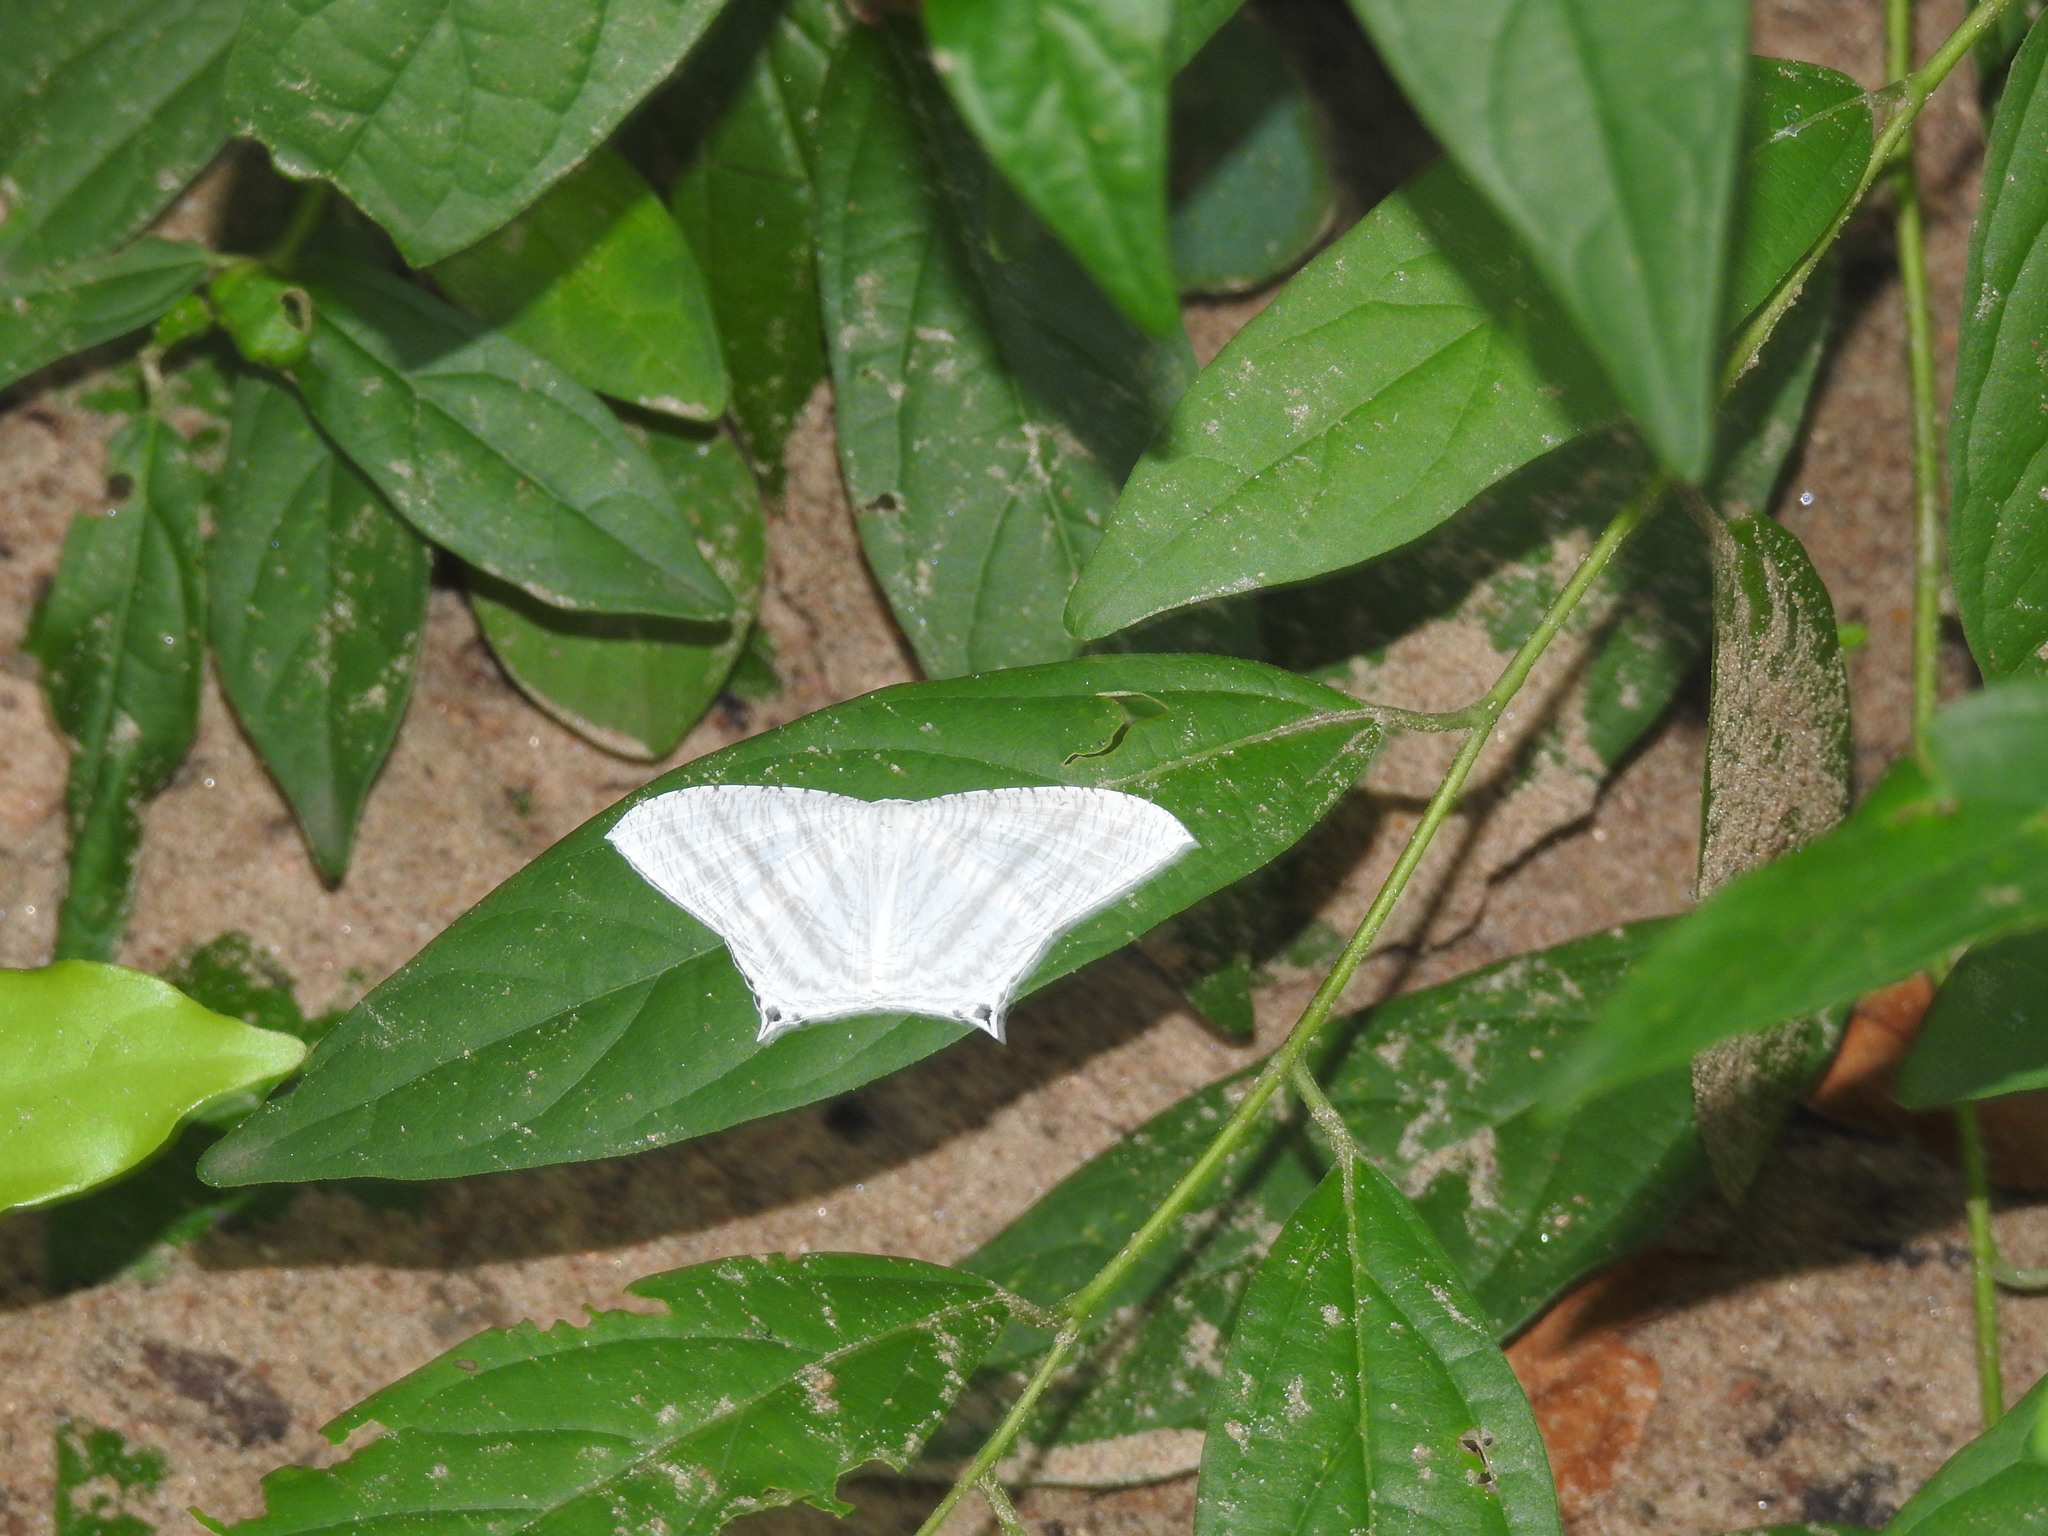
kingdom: Animalia
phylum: Arthropoda
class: Insecta
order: Lepidoptera
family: Uraniidae
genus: Micronia
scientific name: Micronia aculeata
